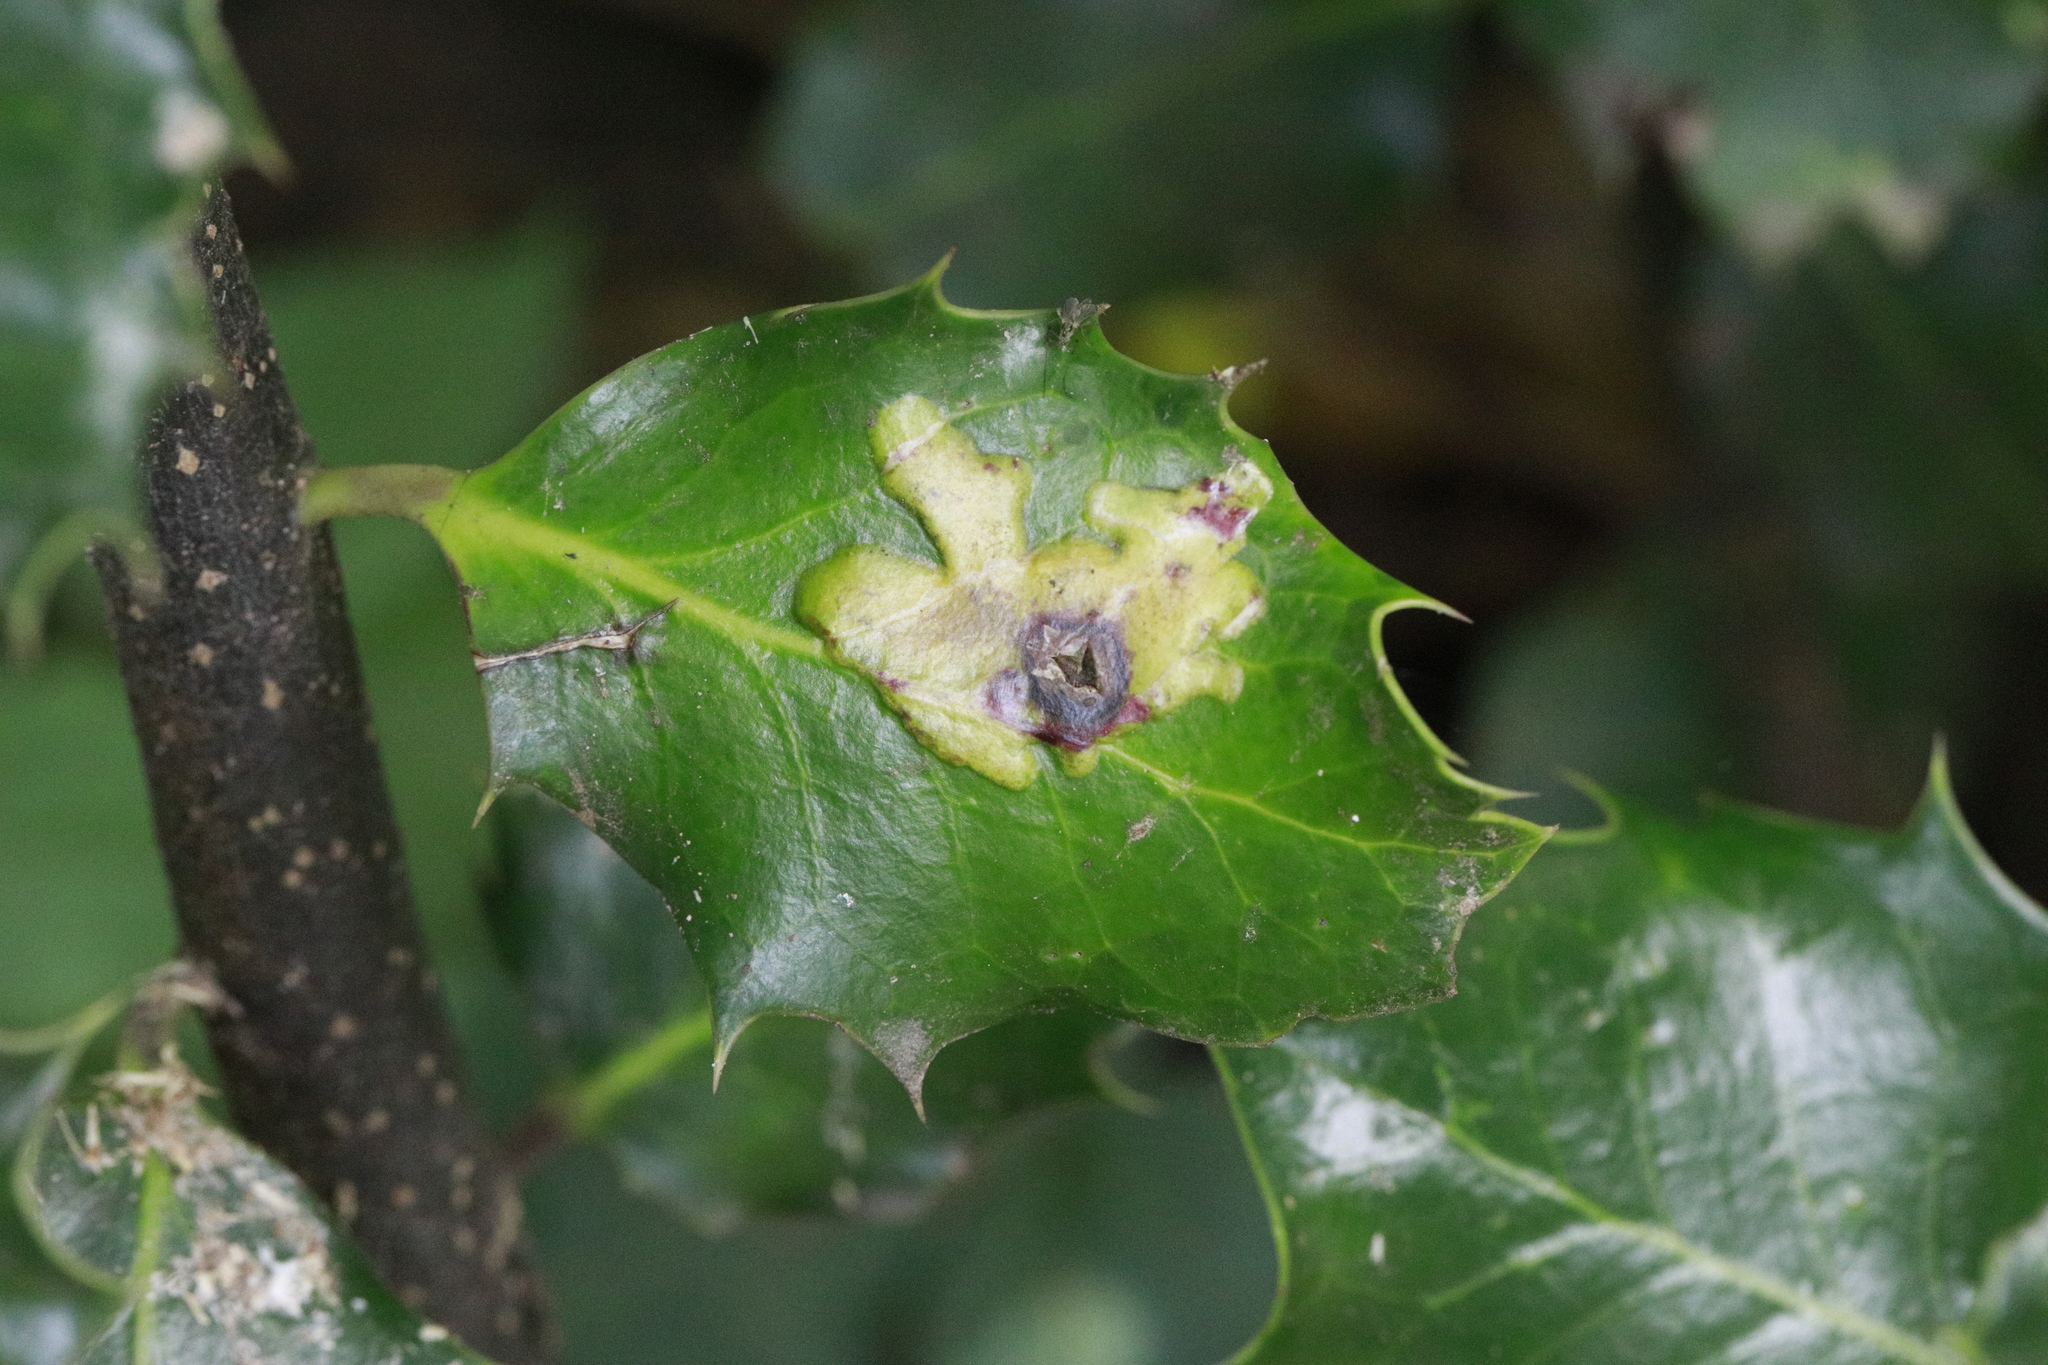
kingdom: Animalia
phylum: Arthropoda
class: Insecta
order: Diptera
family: Agromyzidae
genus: Phytomyza
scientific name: Phytomyza ilicis
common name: Holly leafminer
